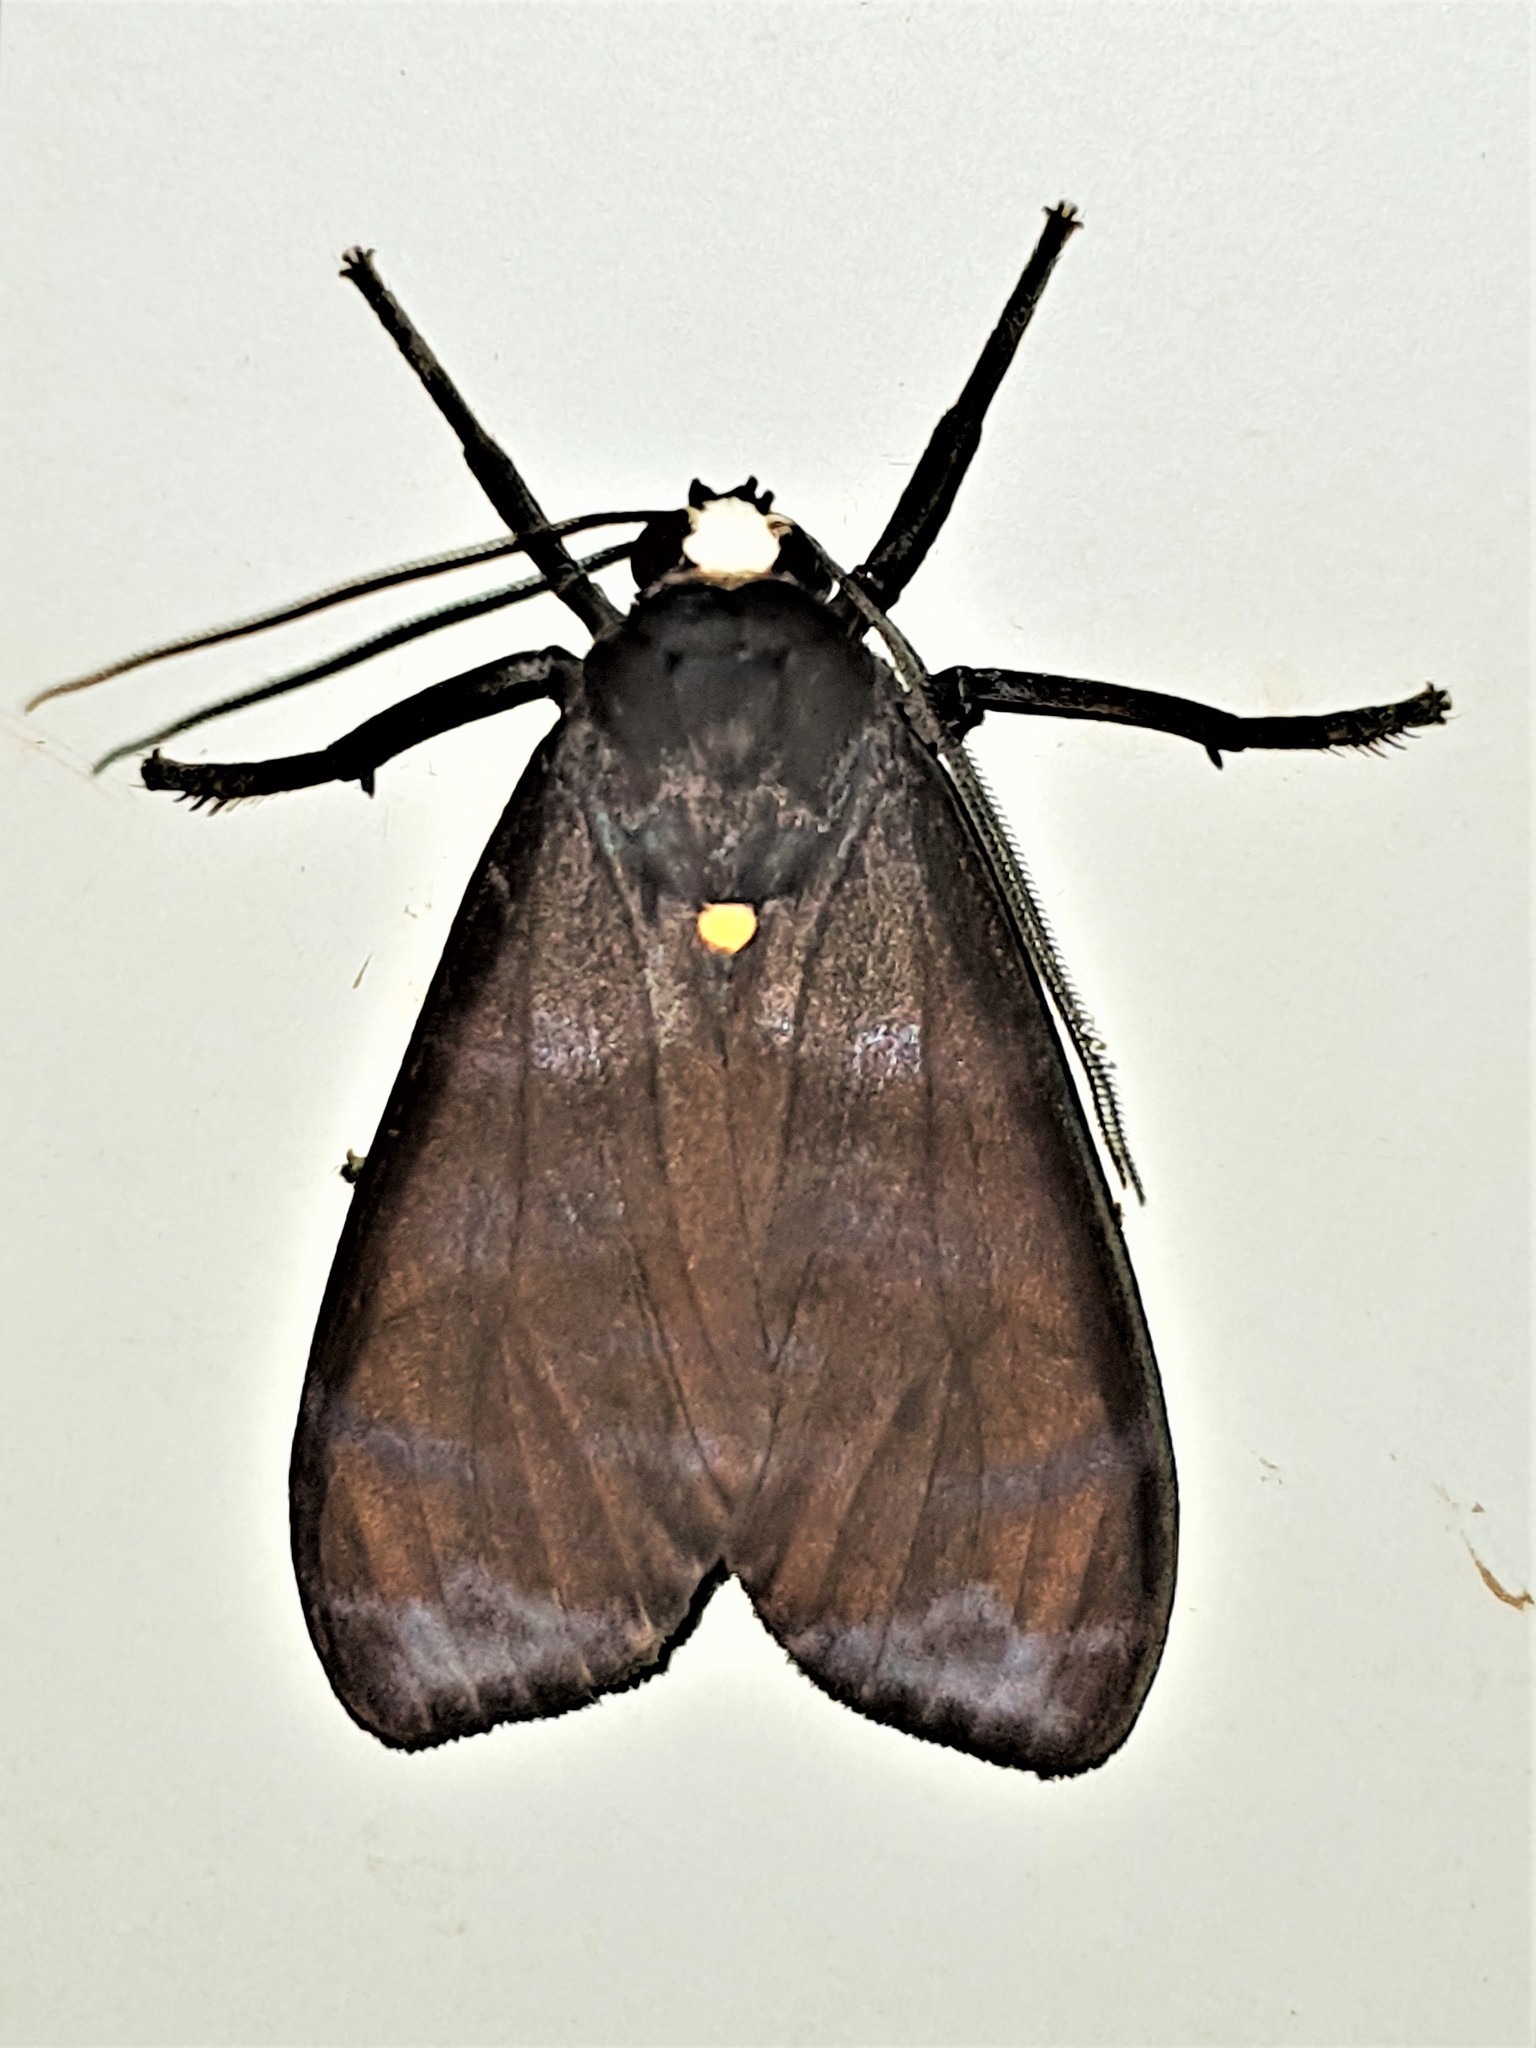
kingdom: Animalia
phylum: Arthropoda
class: Insecta
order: Lepidoptera
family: Erebidae
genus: Pachydota
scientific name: Pachydota punctata
